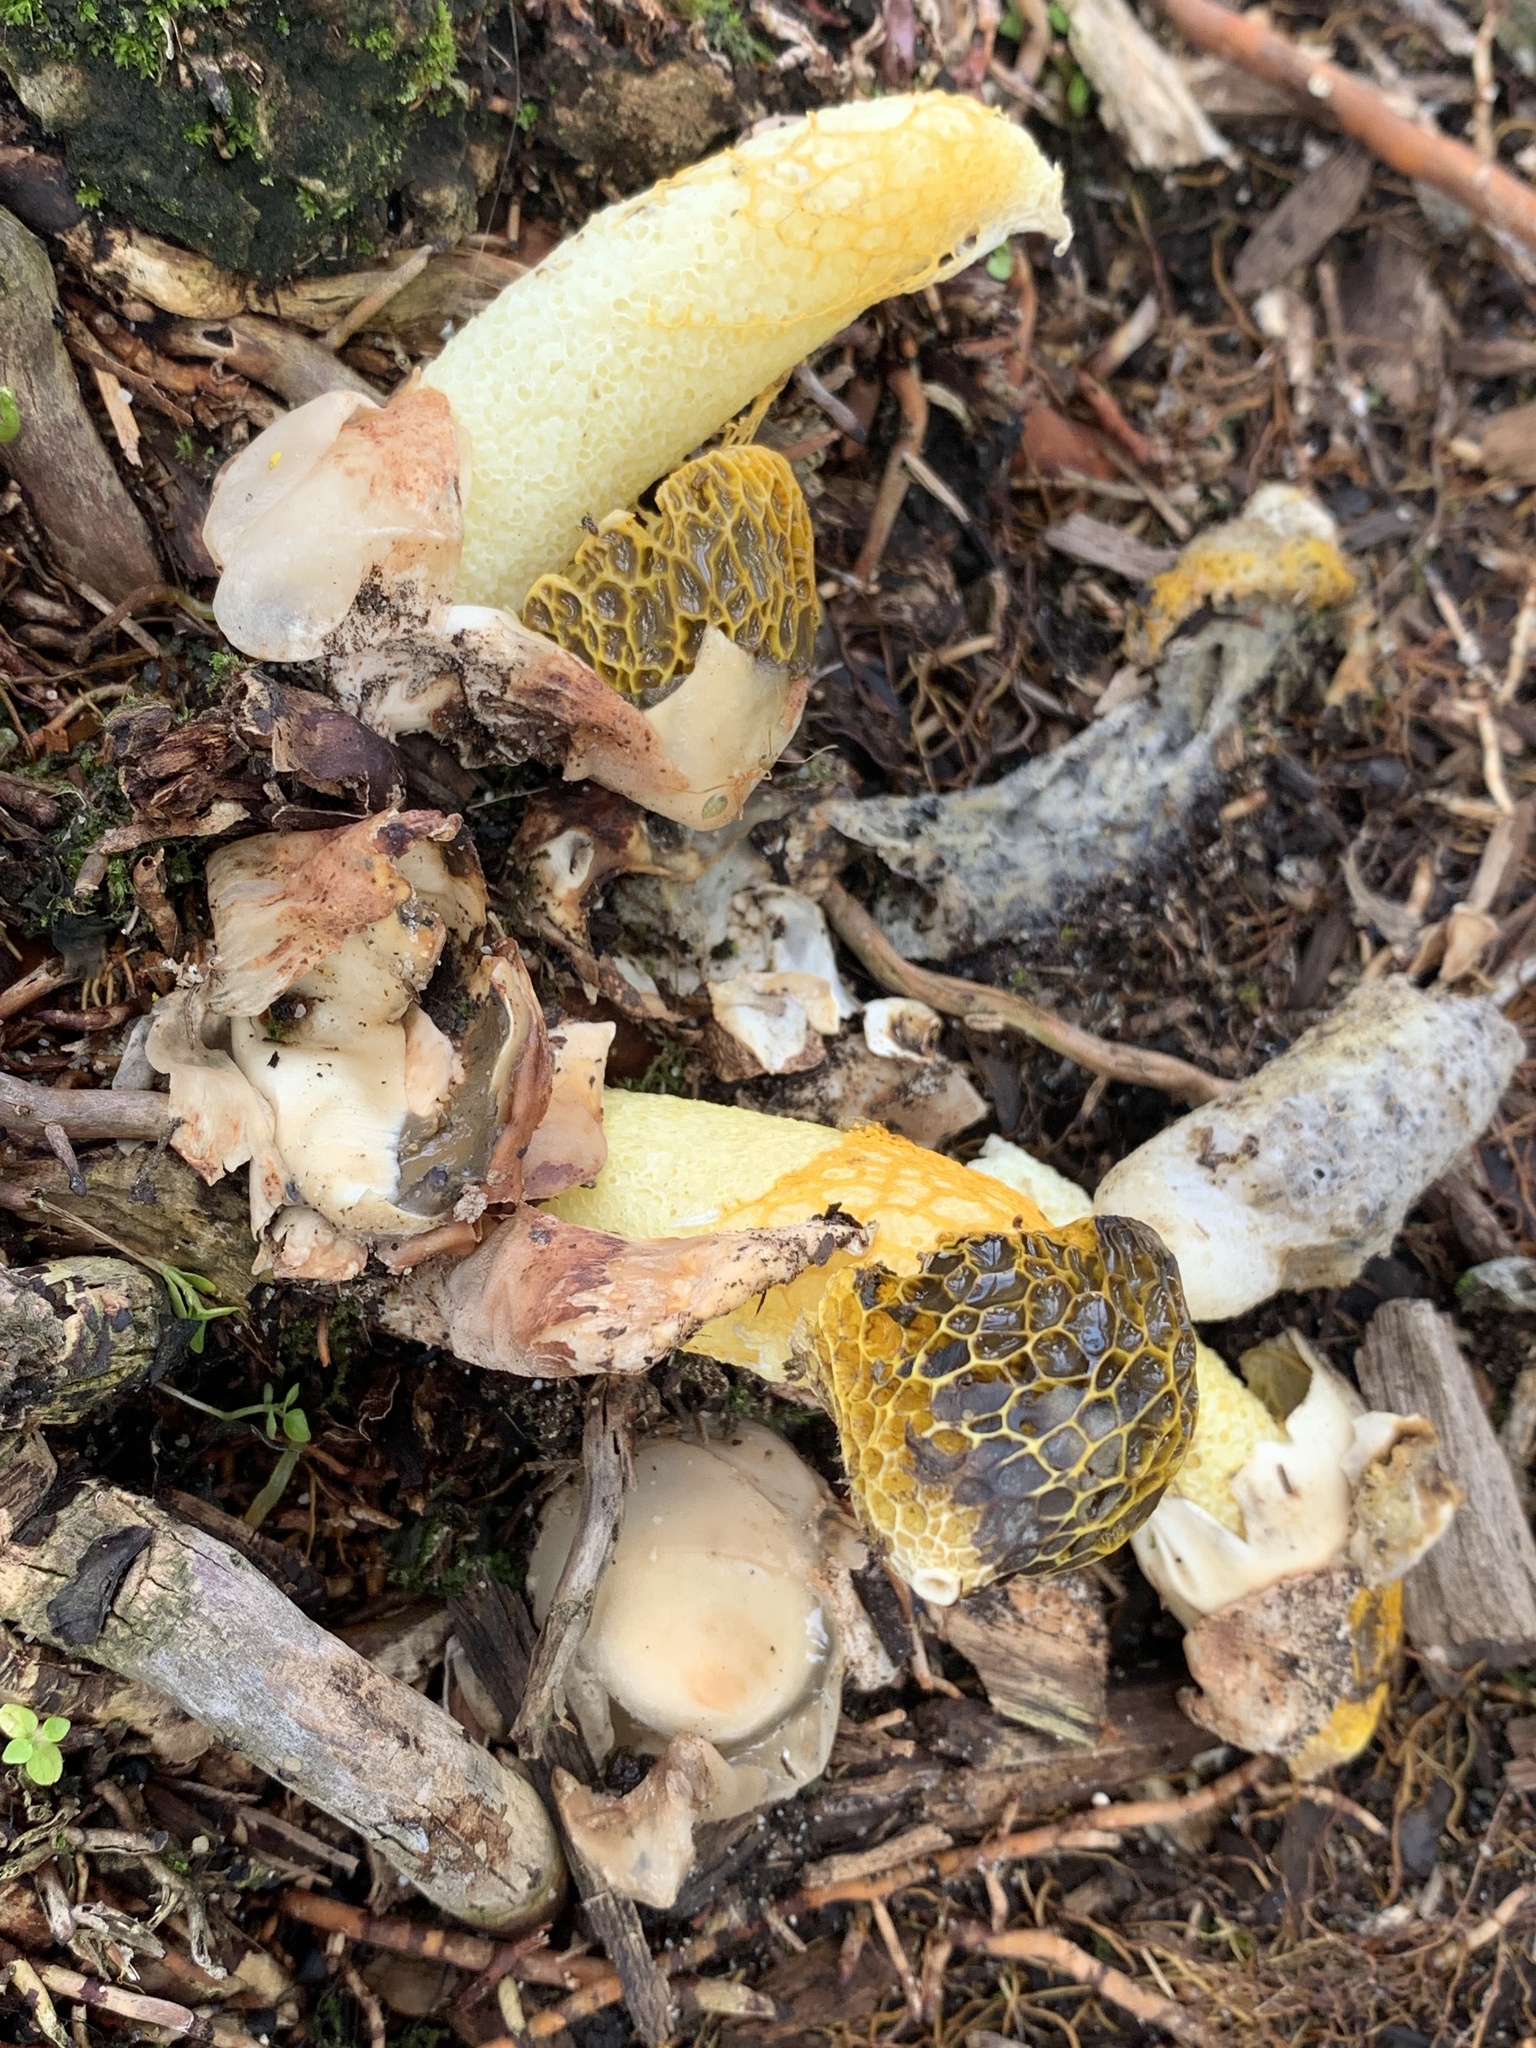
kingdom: Fungi
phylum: Basidiomycota
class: Agaricomycetes
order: Phallales
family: Phallaceae
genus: Phallus
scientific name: Phallus multicolor
